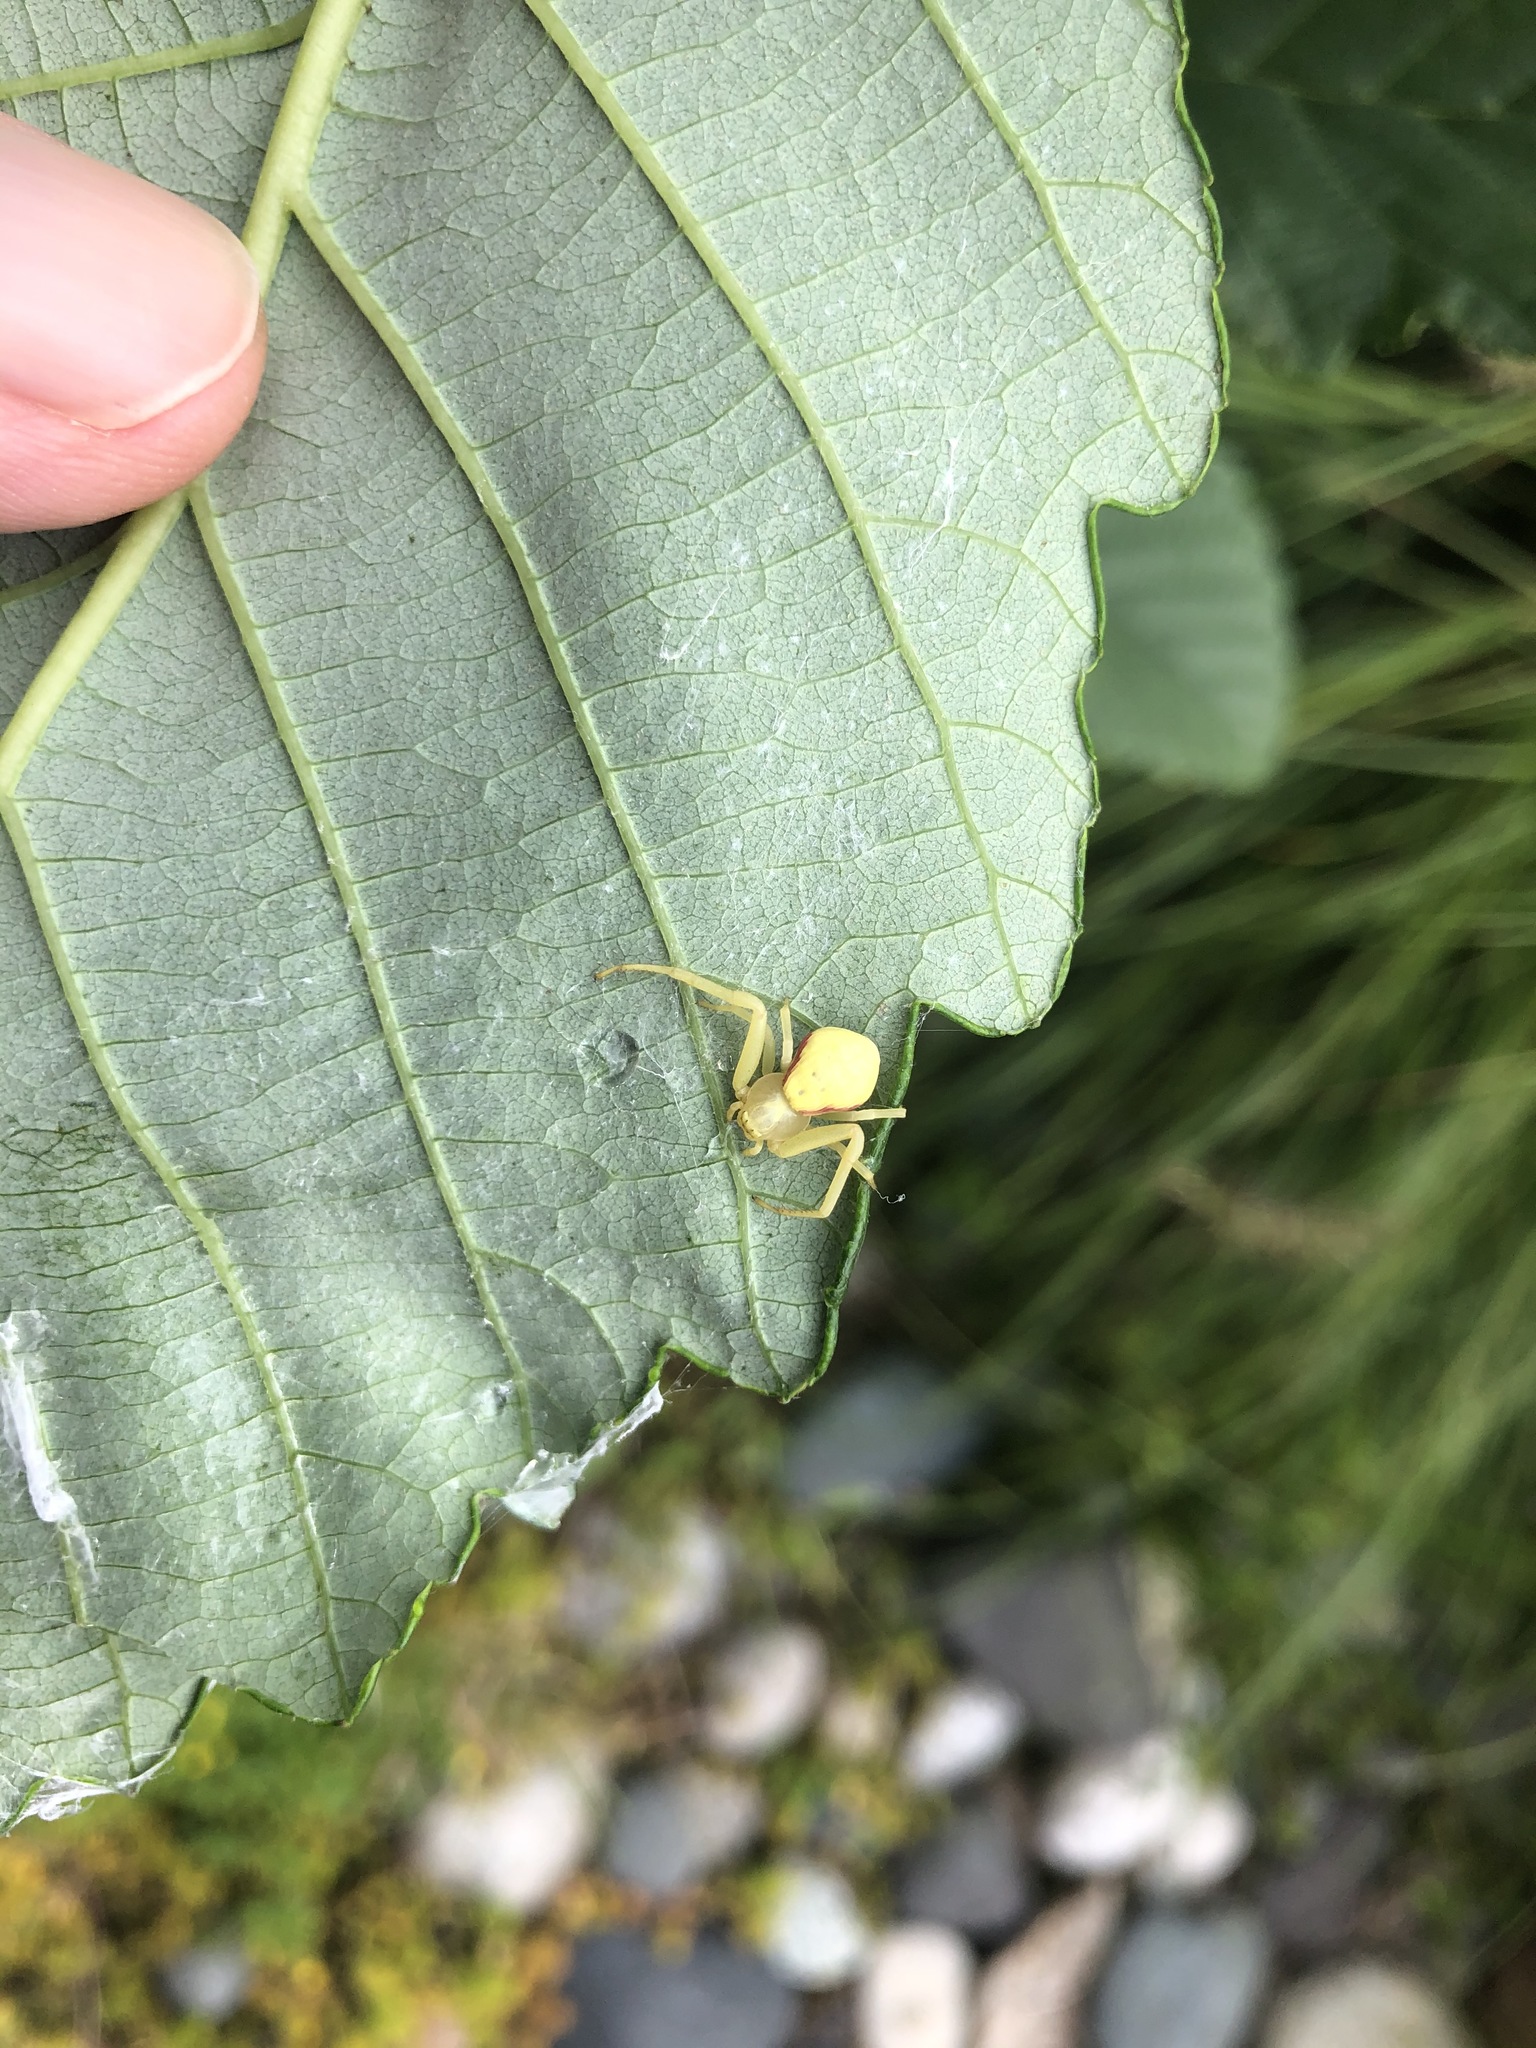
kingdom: Animalia
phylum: Arthropoda
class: Arachnida
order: Araneae
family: Thomisidae
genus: Misumena
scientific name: Misumena vatia
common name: Goldenrod crab spider
